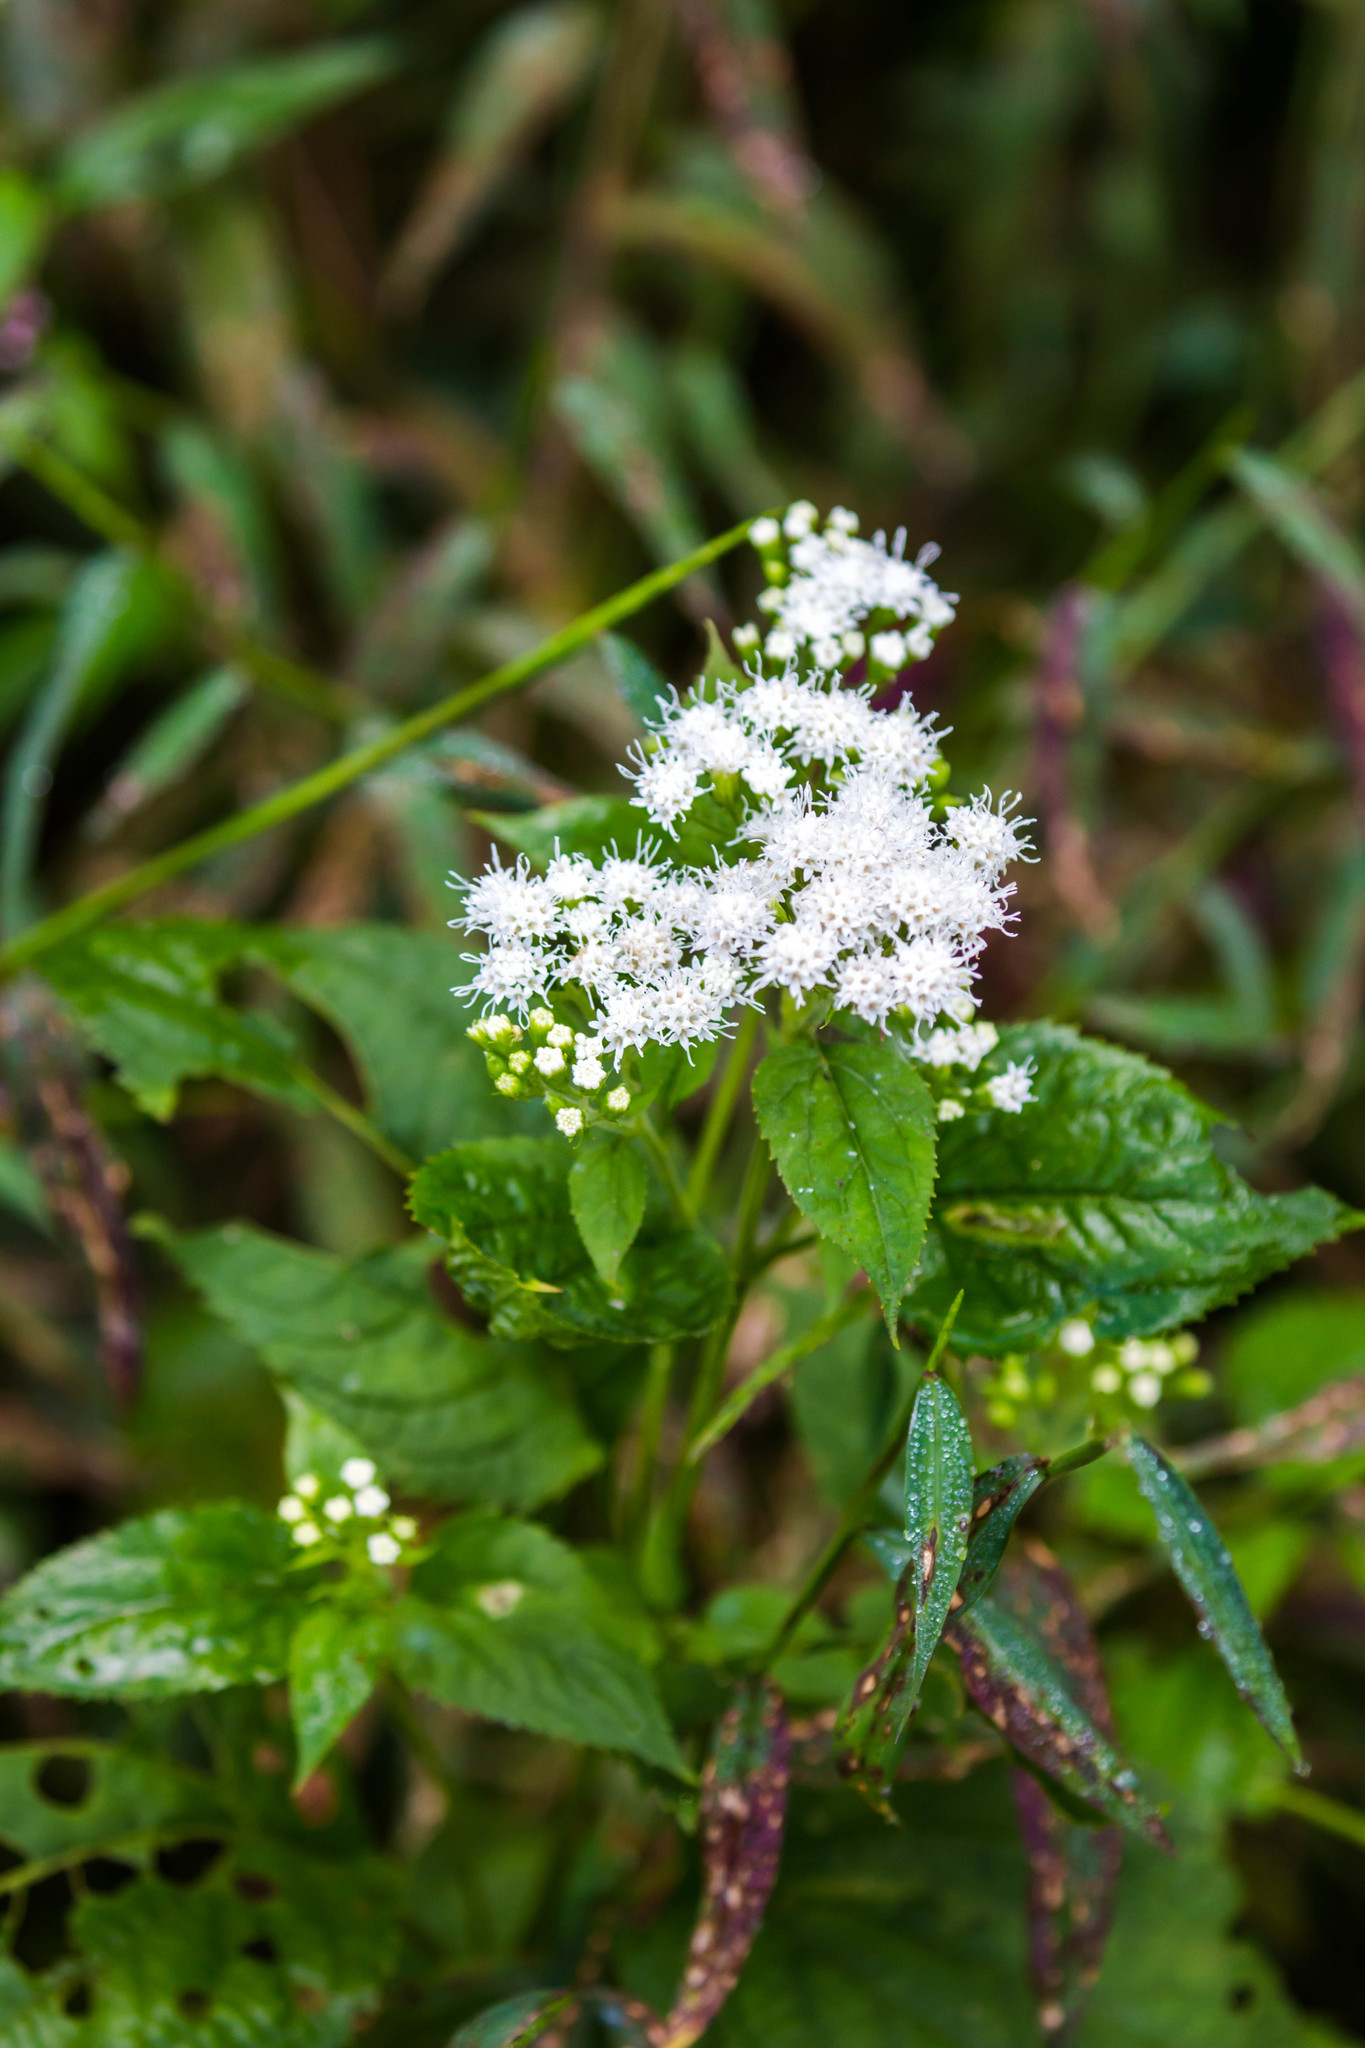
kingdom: Plantae
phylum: Tracheophyta
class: Magnoliopsida
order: Asterales
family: Asteraceae
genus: Ageratina
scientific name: Ageratina altissima
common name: White snakeroot
